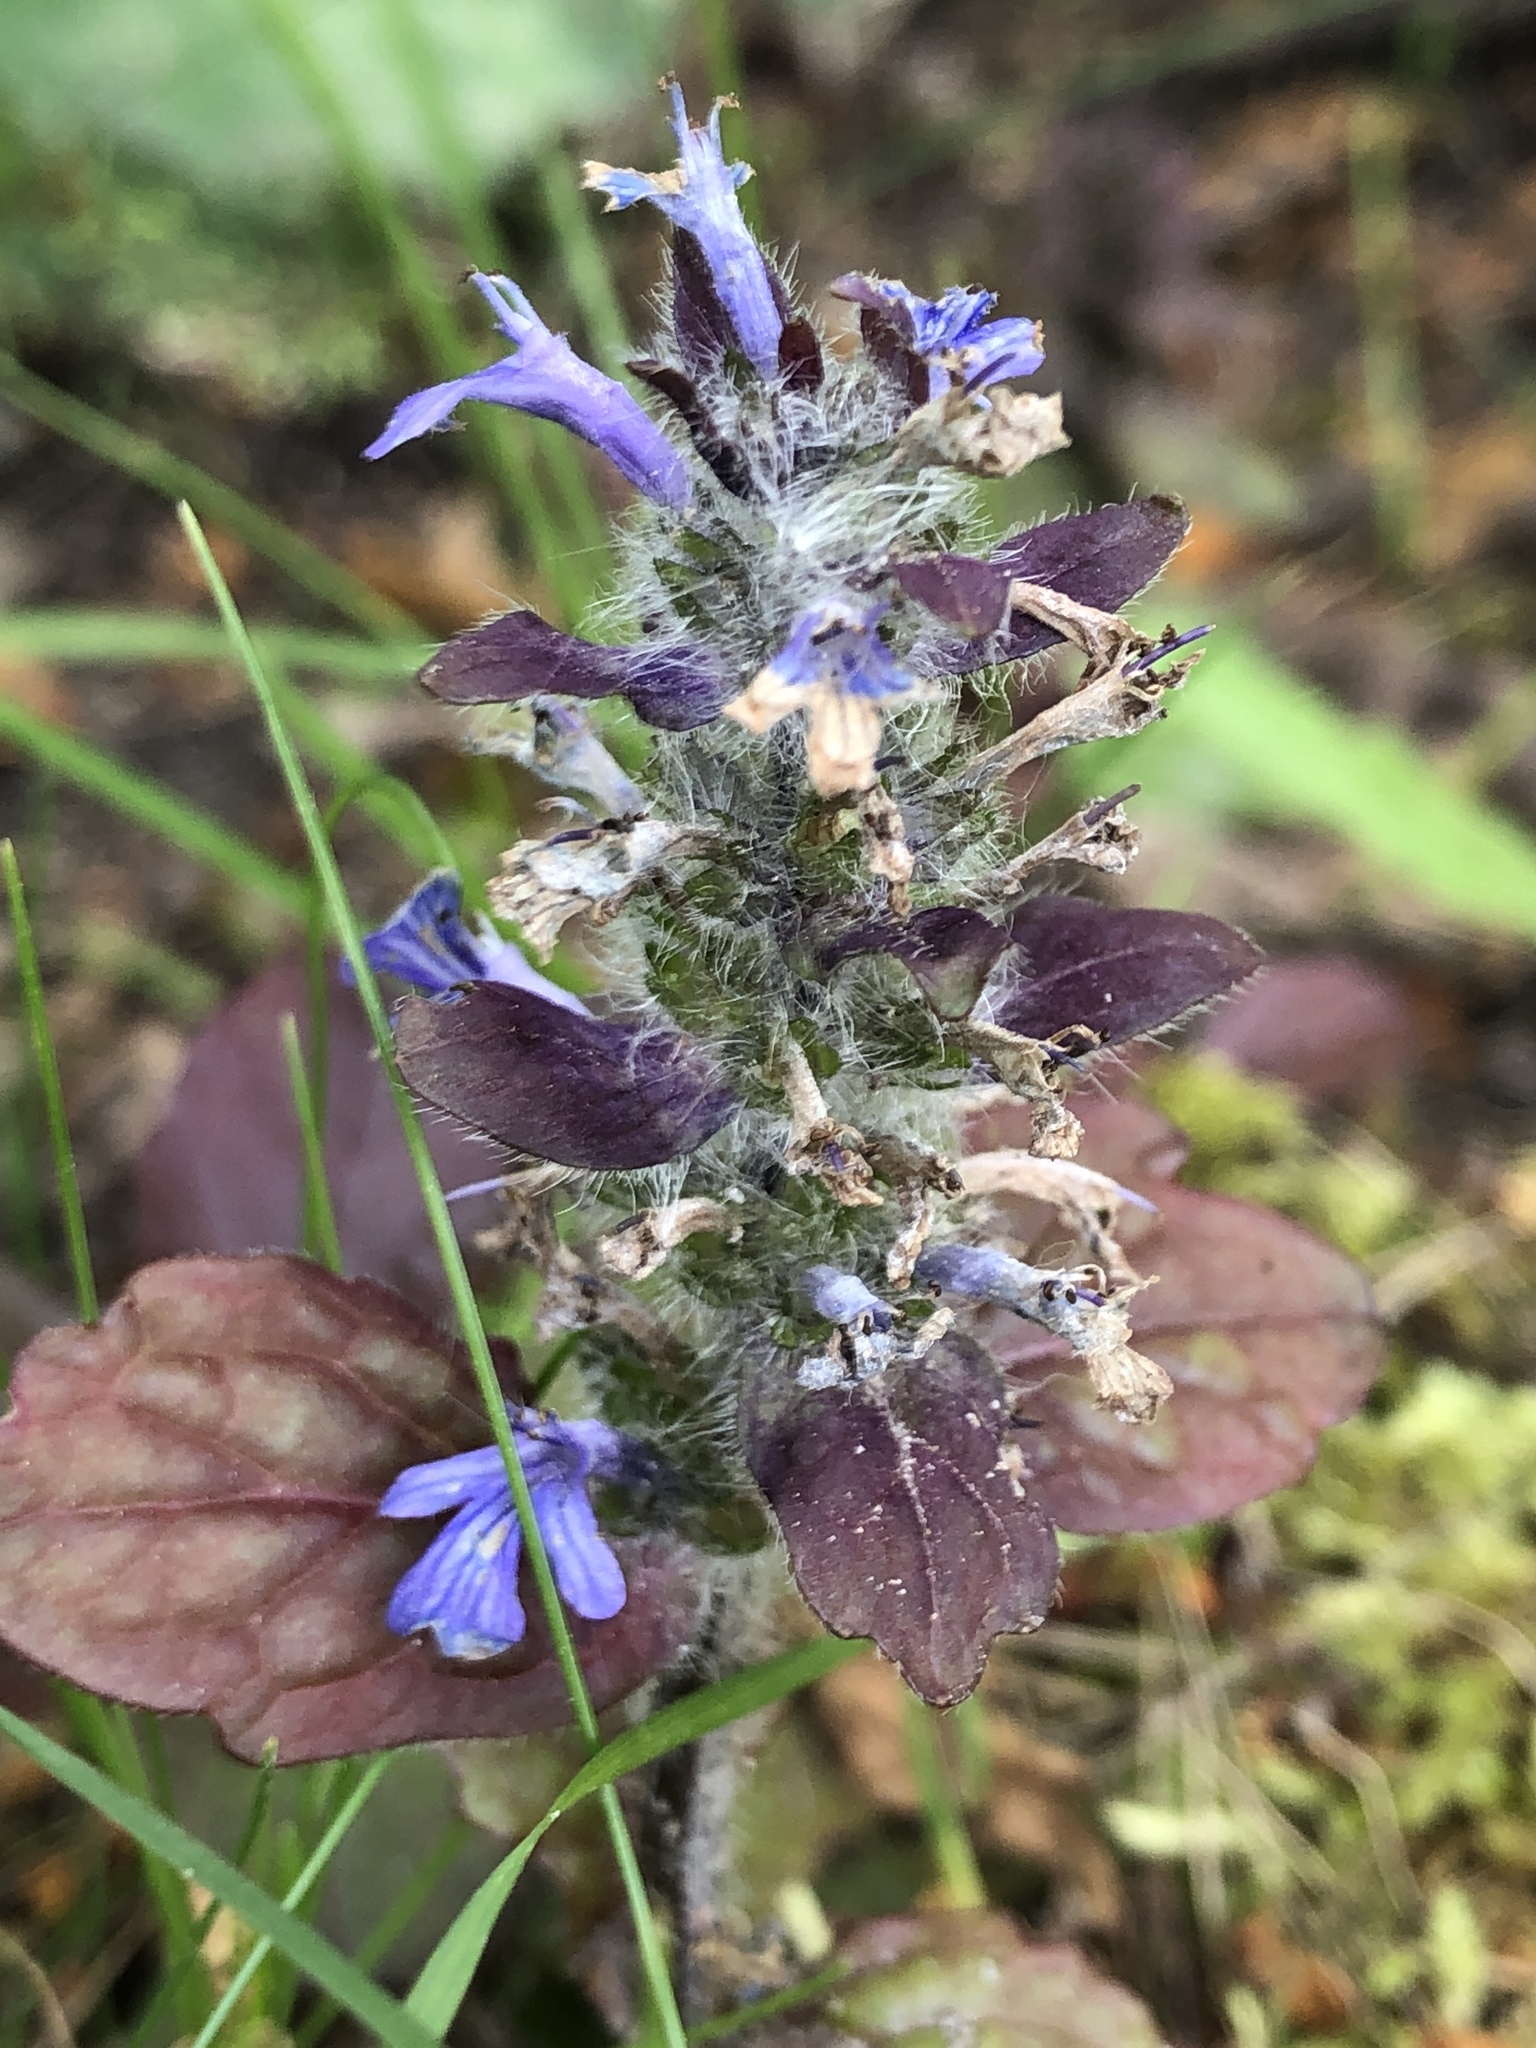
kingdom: Plantae
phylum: Tracheophyta
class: Magnoliopsida
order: Lamiales
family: Lamiaceae
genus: Ajuga
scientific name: Ajuga reptans
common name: Bugle
